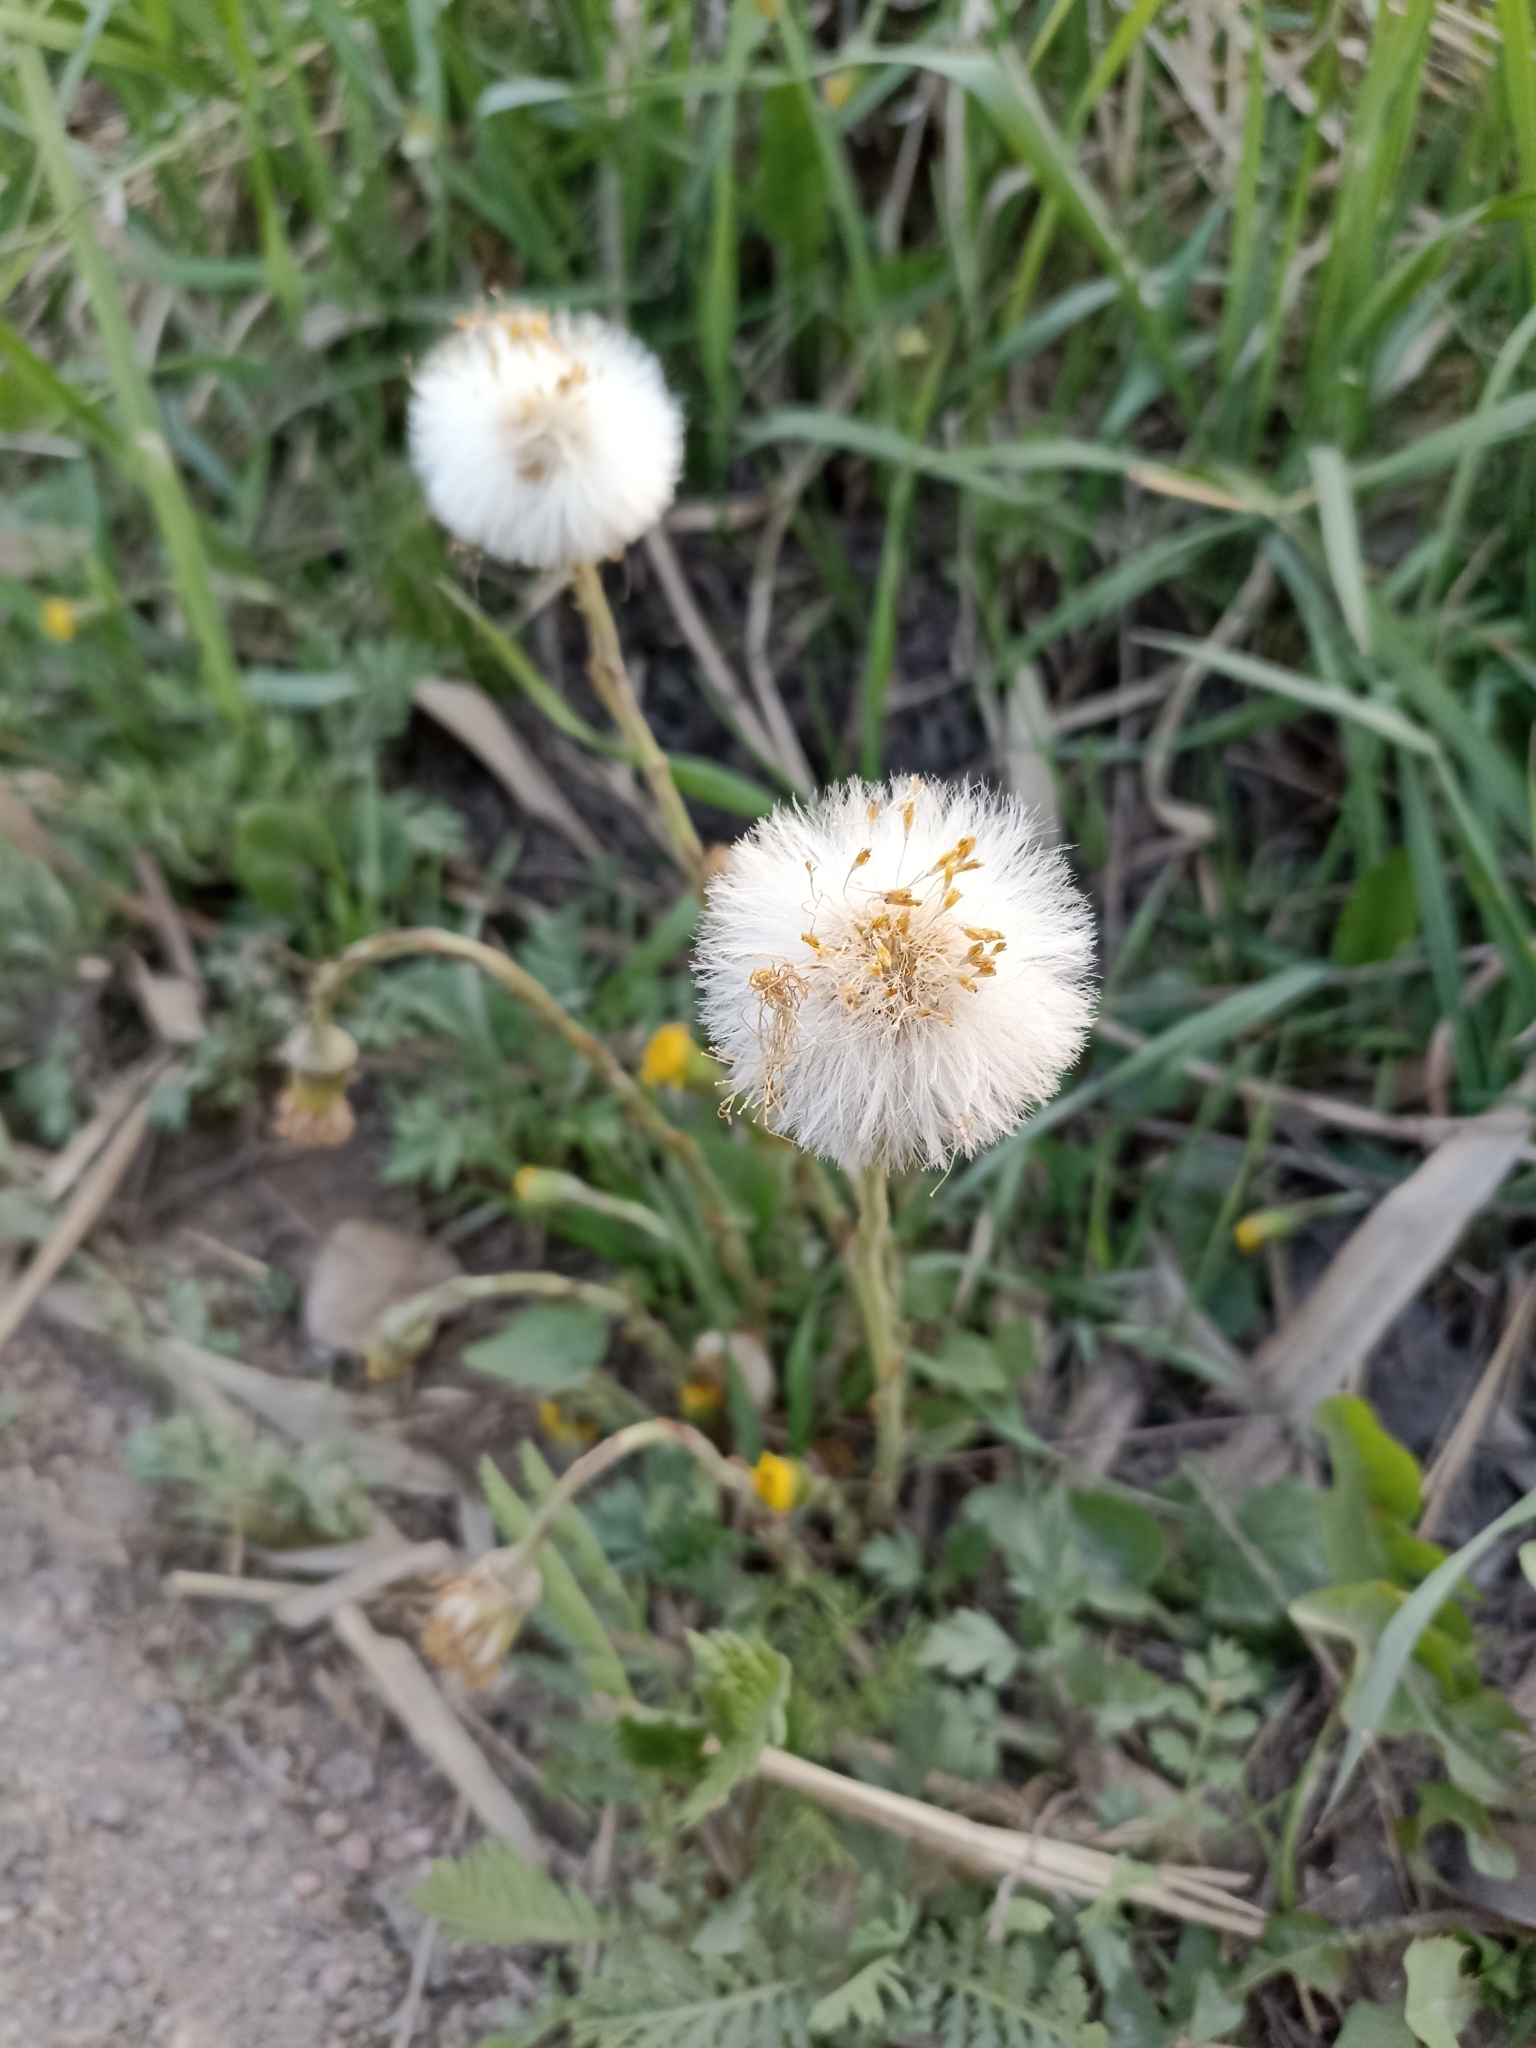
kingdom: Plantae
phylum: Tracheophyta
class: Magnoliopsida
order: Asterales
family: Asteraceae
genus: Tussilago
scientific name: Tussilago farfara
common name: Coltsfoot
